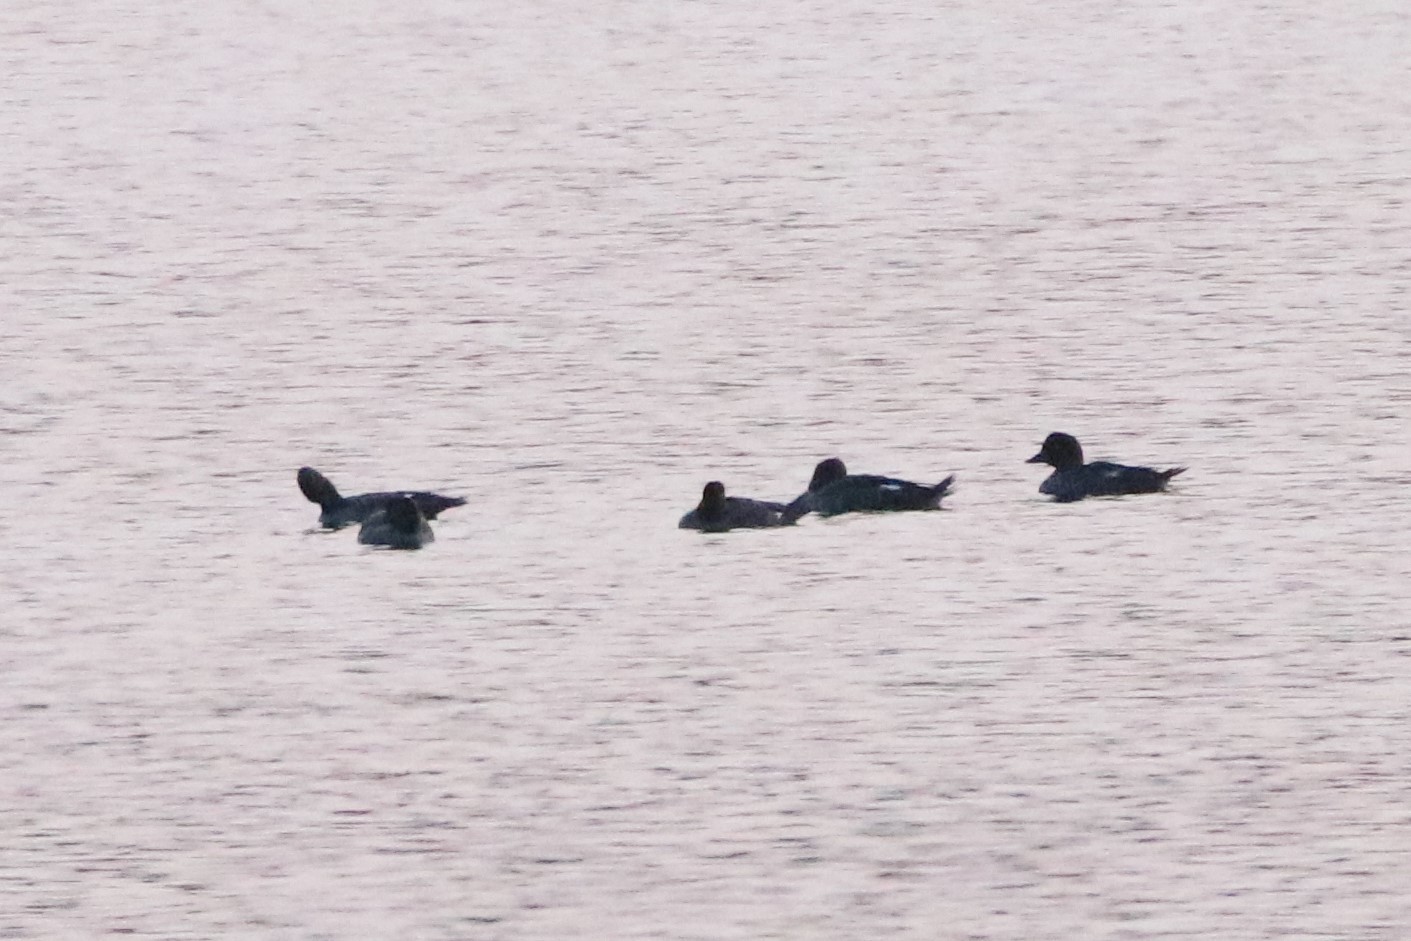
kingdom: Animalia
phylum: Chordata
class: Aves
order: Anseriformes
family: Anatidae
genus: Bucephala
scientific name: Bucephala clangula
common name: Common goldeneye
